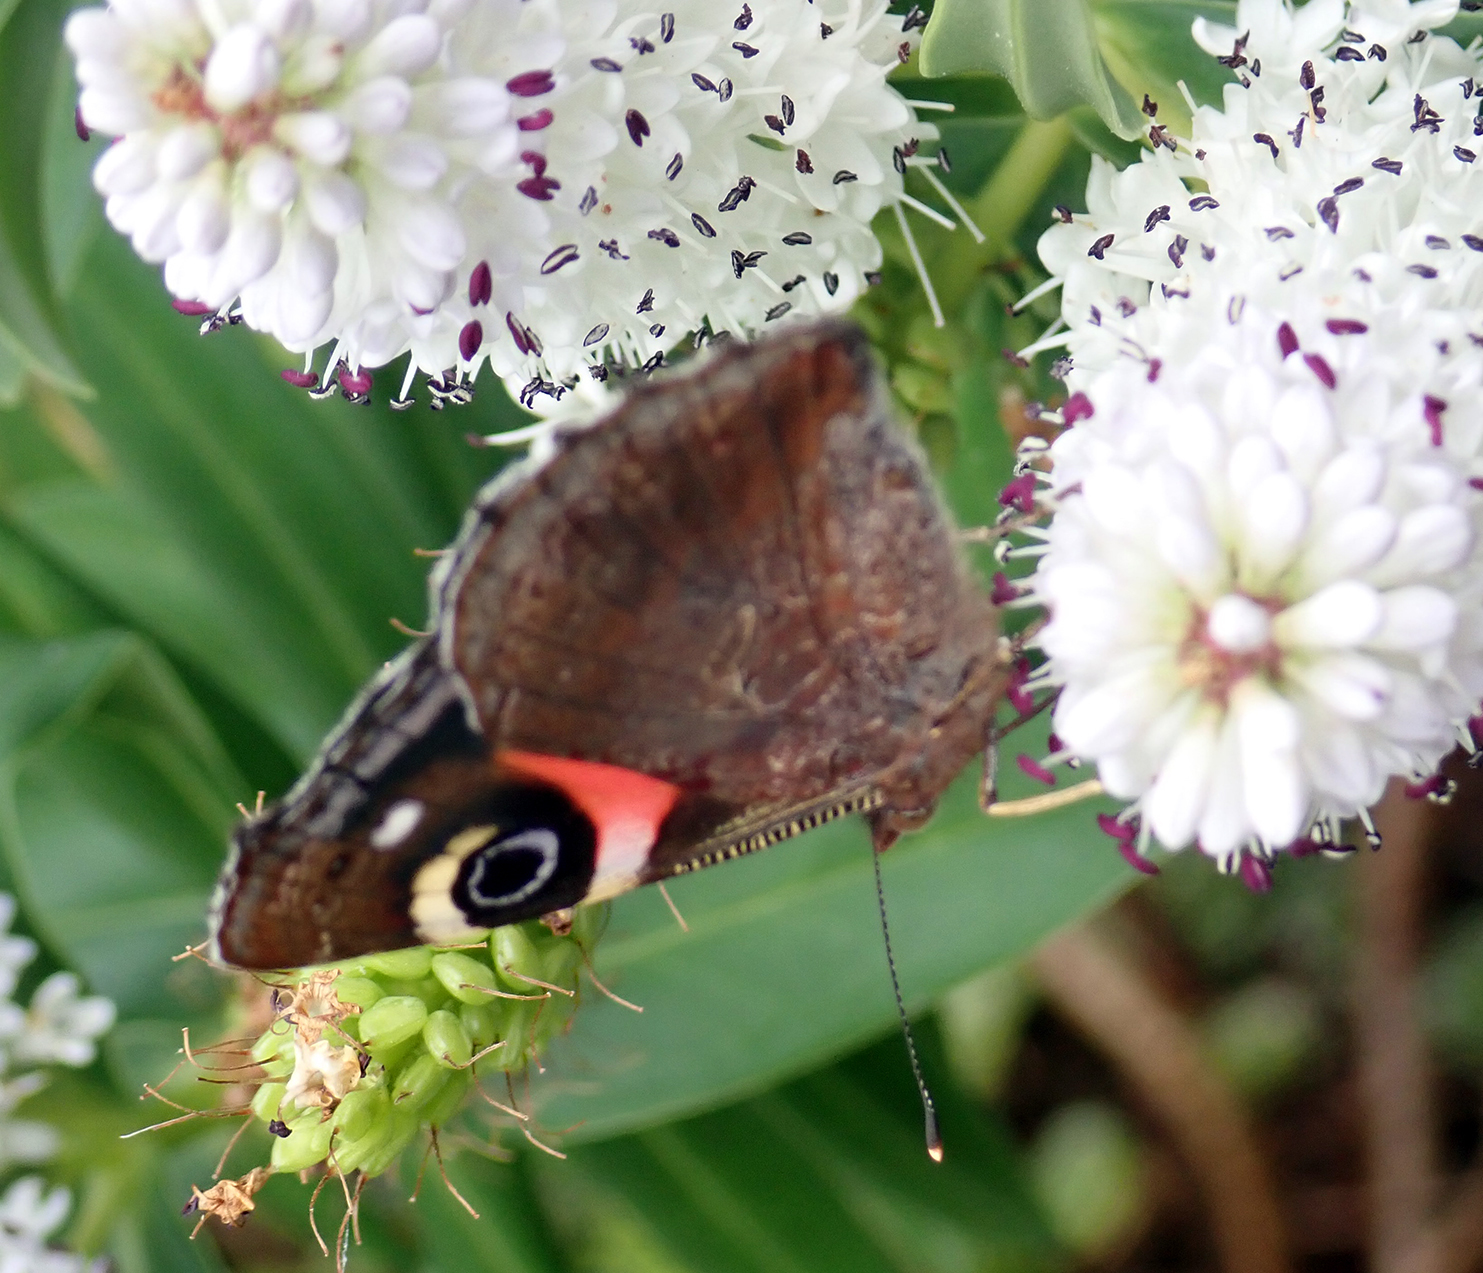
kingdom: Animalia
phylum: Arthropoda
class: Insecta
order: Lepidoptera
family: Nymphalidae
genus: Vanessa
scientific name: Vanessa gonerilla
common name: New zealand red admiral
